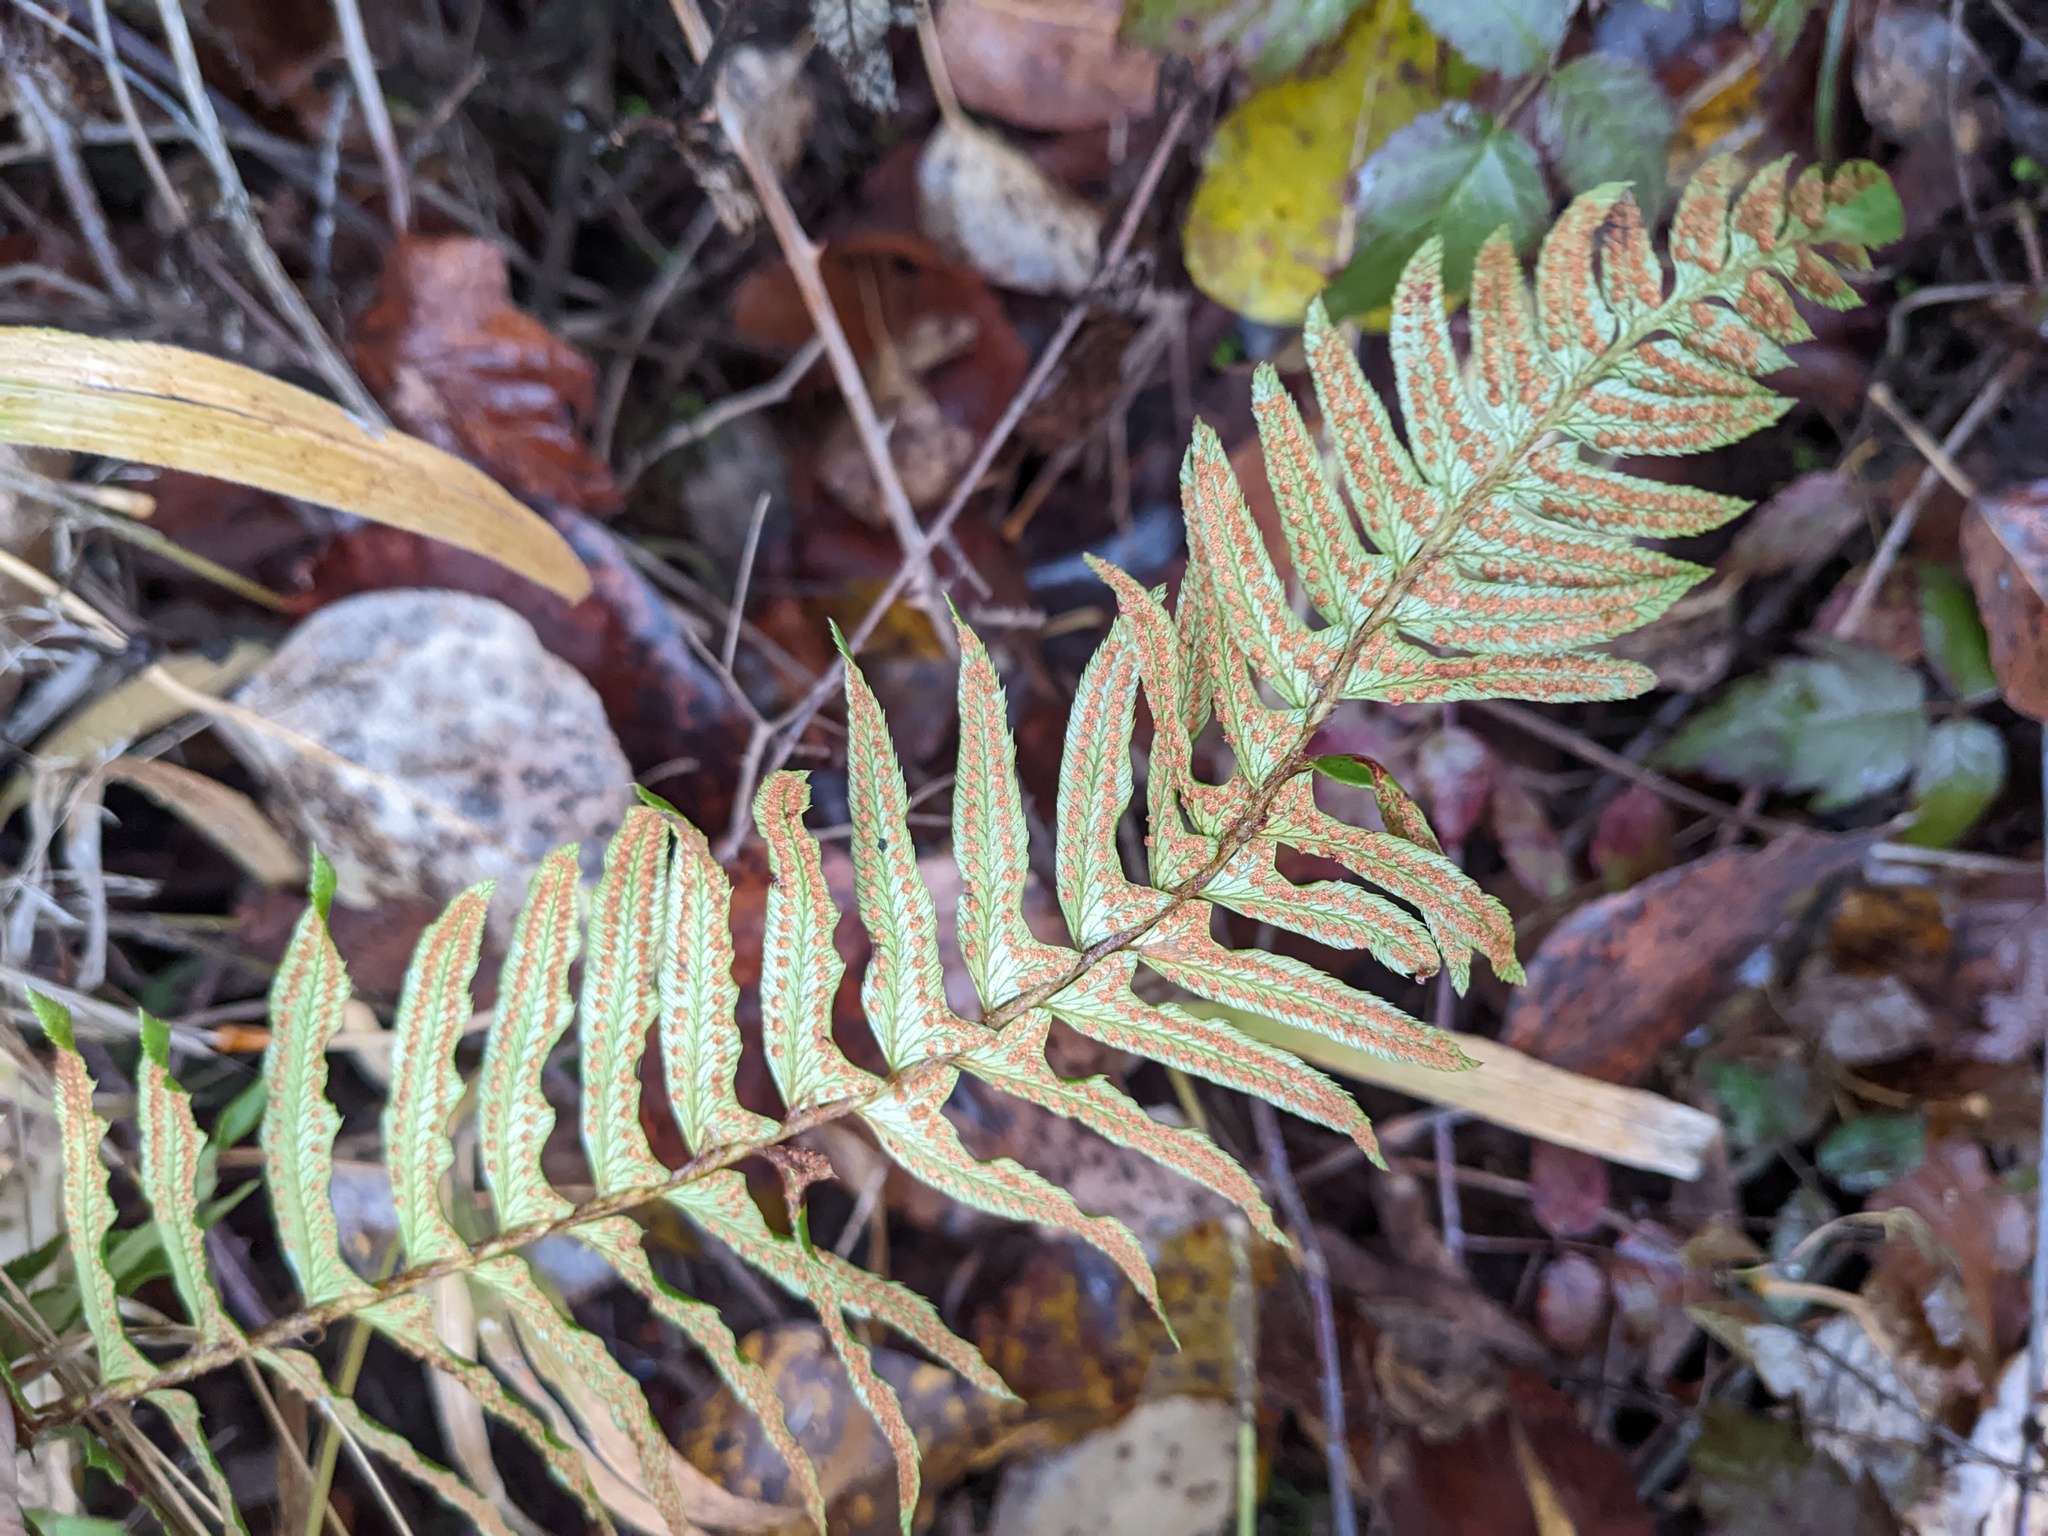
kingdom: Plantae
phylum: Tracheophyta
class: Polypodiopsida
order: Polypodiales
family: Dryopteridaceae
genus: Polystichum
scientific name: Polystichum munitum
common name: Western sword-fern
